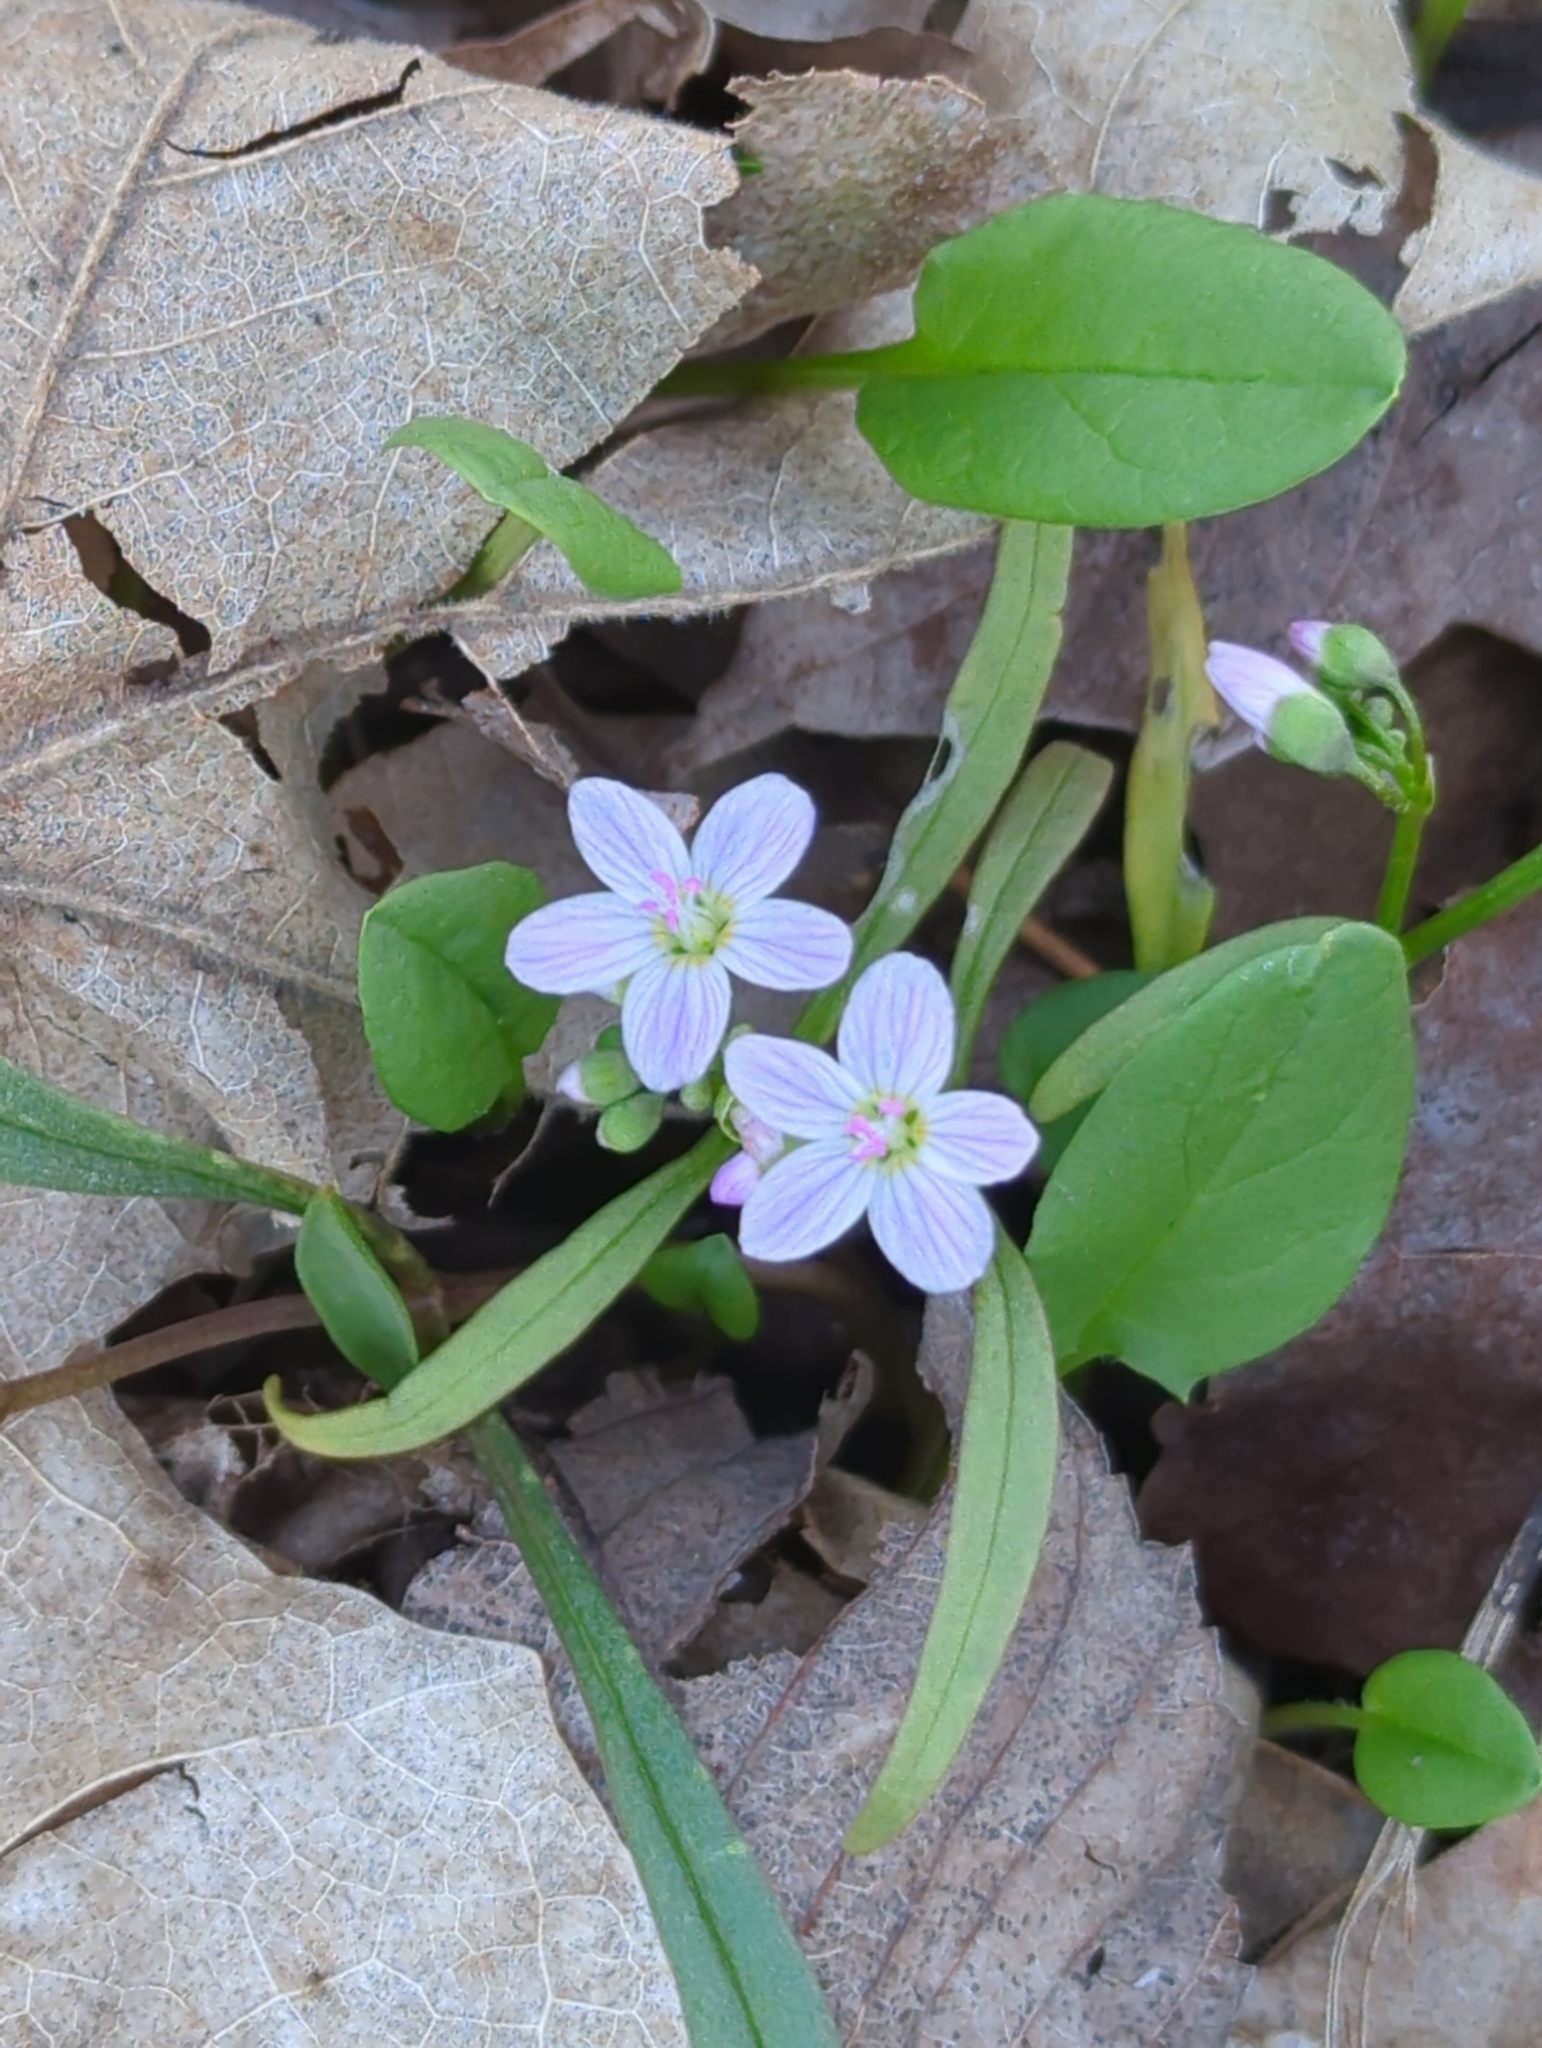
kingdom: Plantae
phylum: Tracheophyta
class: Magnoliopsida
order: Caryophyllales
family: Montiaceae
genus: Claytonia
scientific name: Claytonia virginica
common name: Virginia springbeauty
